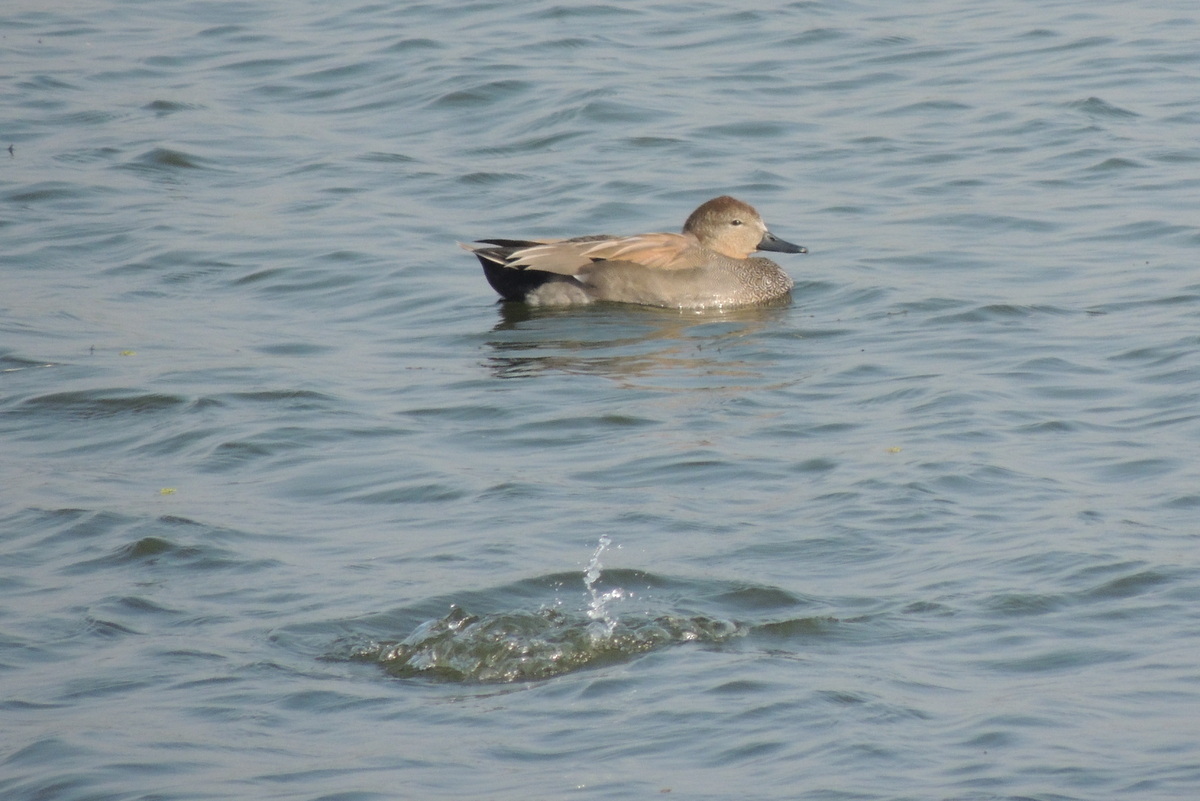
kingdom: Animalia
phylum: Chordata
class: Aves
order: Anseriformes
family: Anatidae
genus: Mareca
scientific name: Mareca strepera
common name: Gadwall
